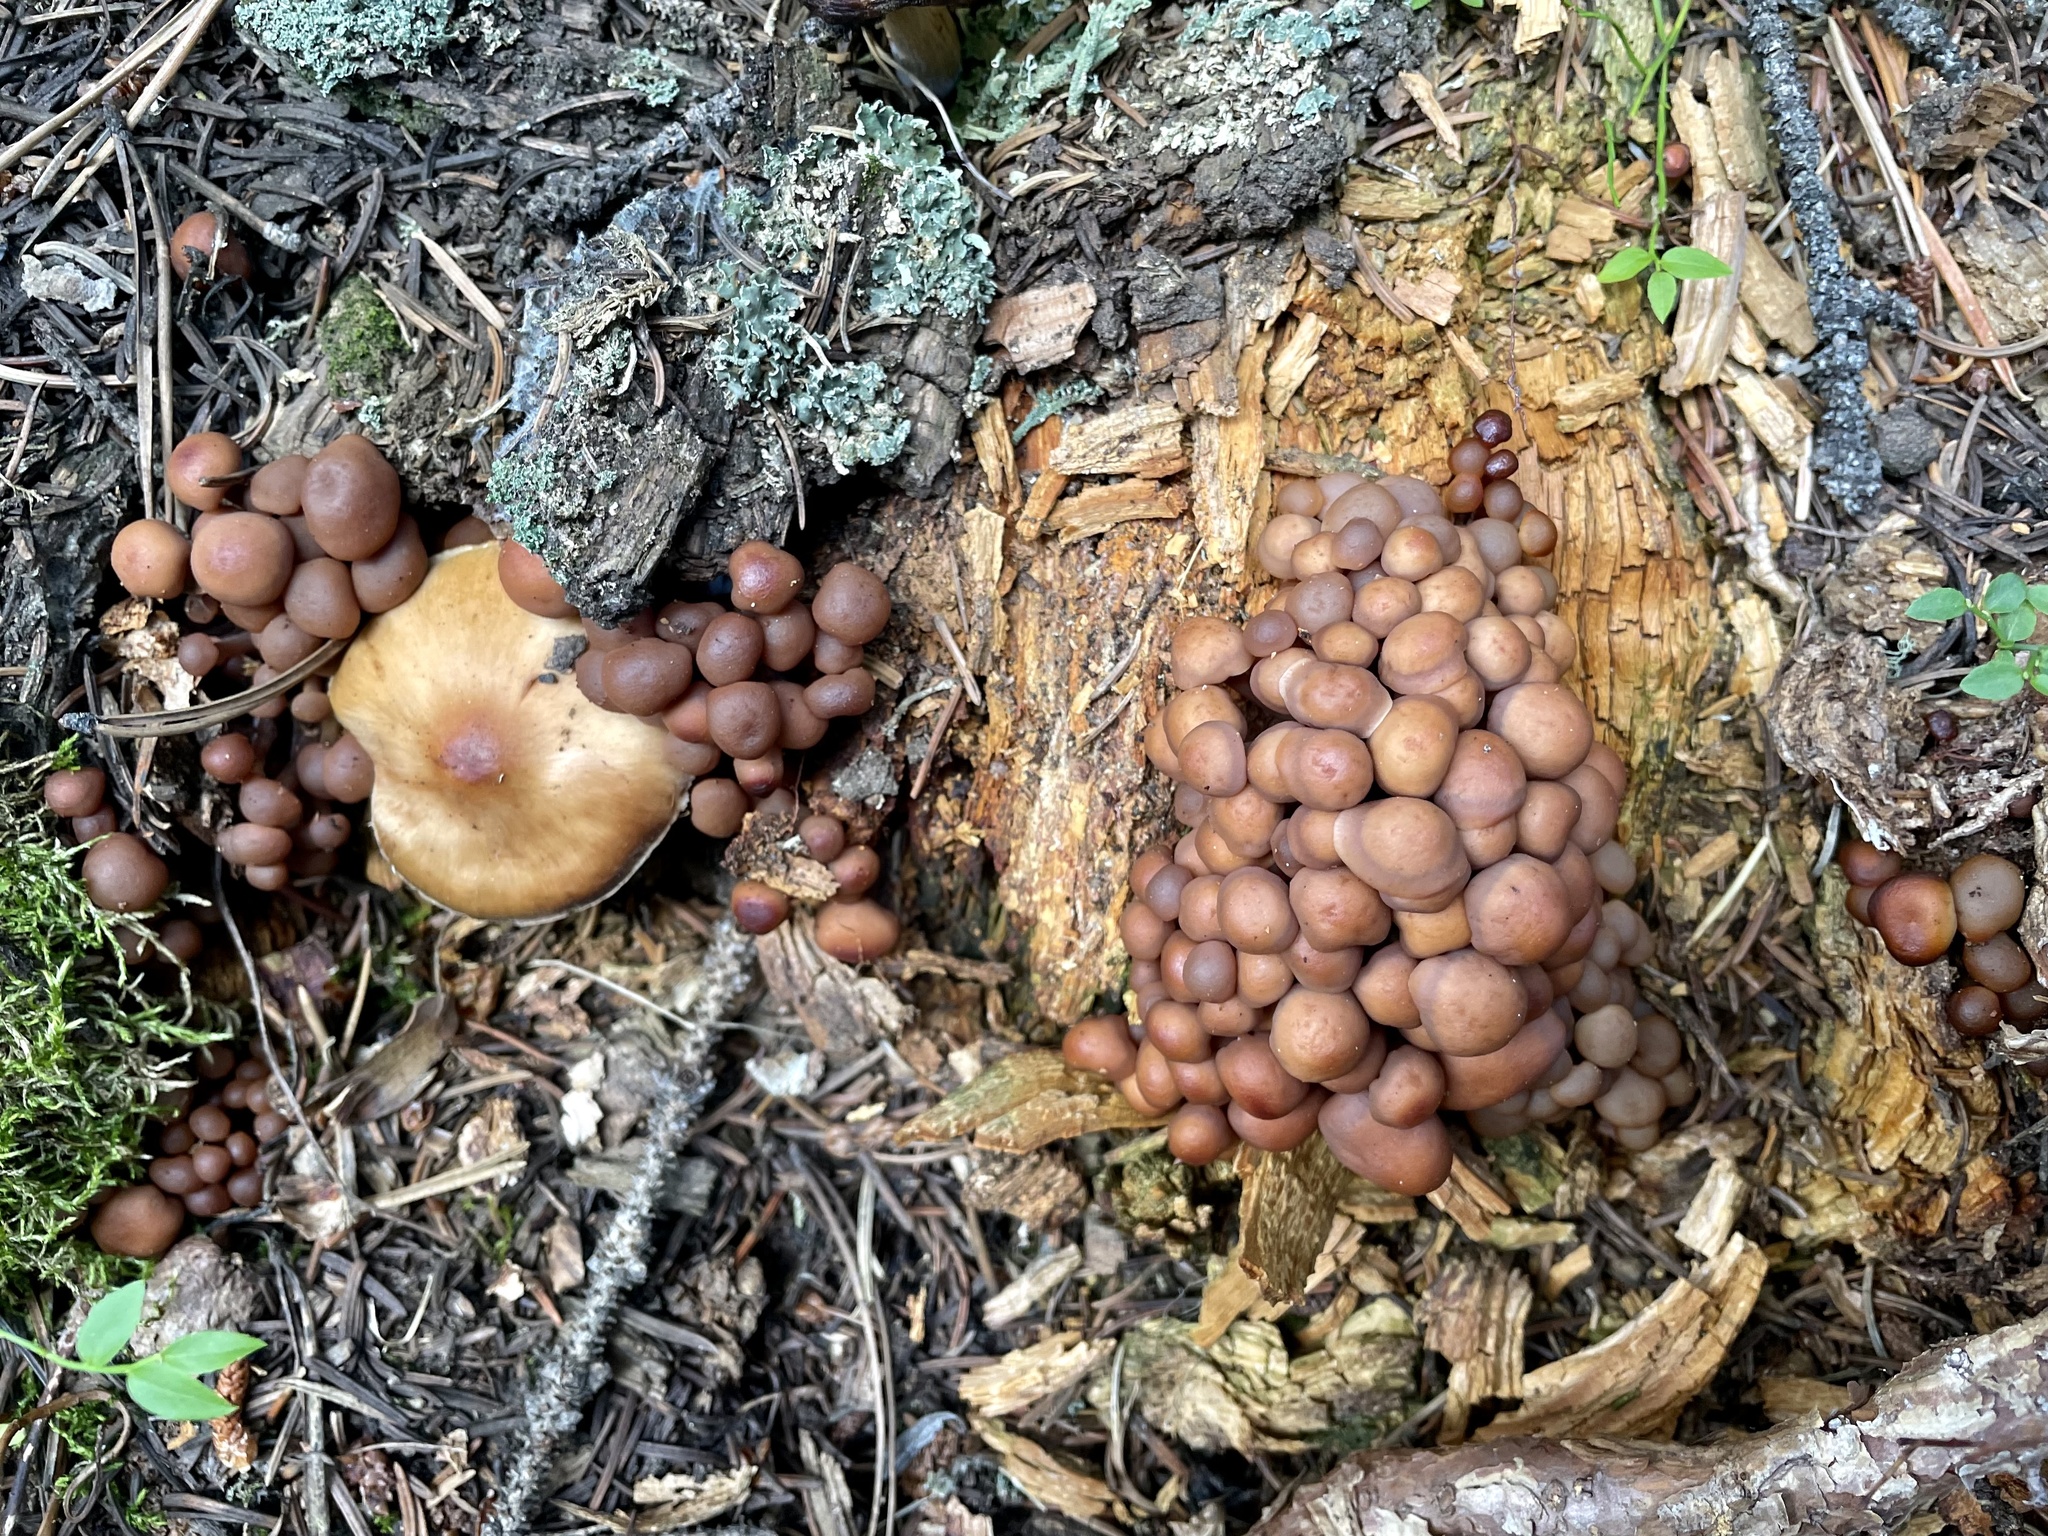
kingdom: Fungi
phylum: Basidiomycota
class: Agaricomycetes
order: Agaricales
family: Omphalotaceae
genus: Connopus
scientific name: Connopus acervatus
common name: Cluster cap
